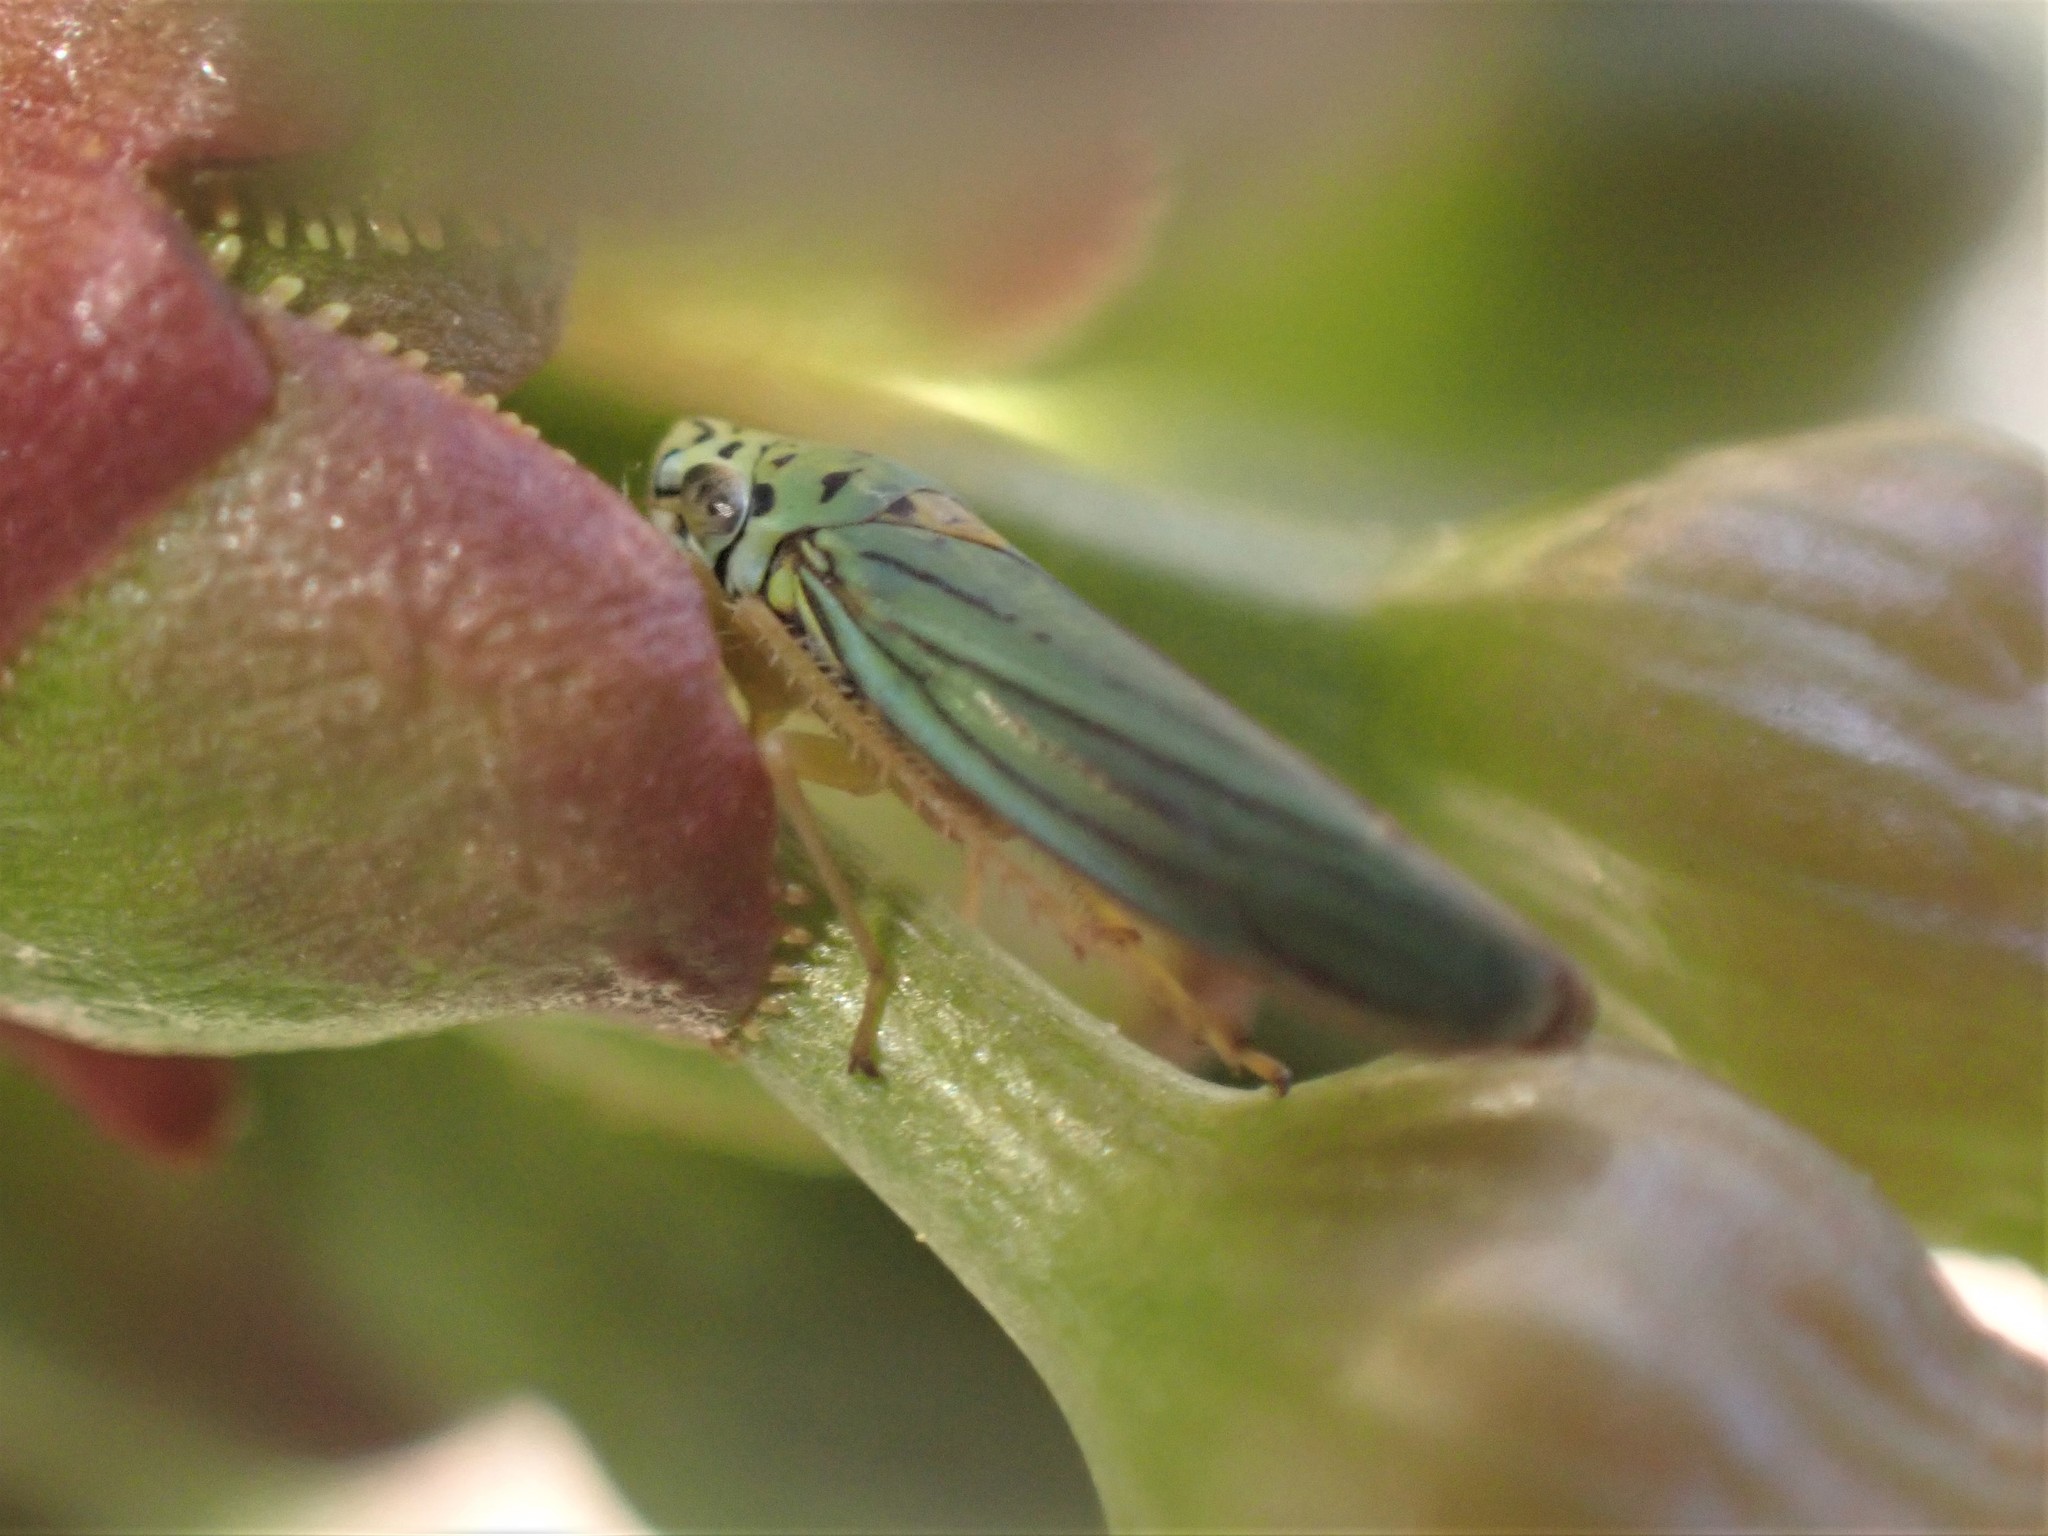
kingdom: Animalia
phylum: Arthropoda
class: Insecta
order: Hemiptera
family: Cicadellidae
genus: Graphocephala
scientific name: Graphocephala atropunctata
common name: Blue-green sharpshooter
